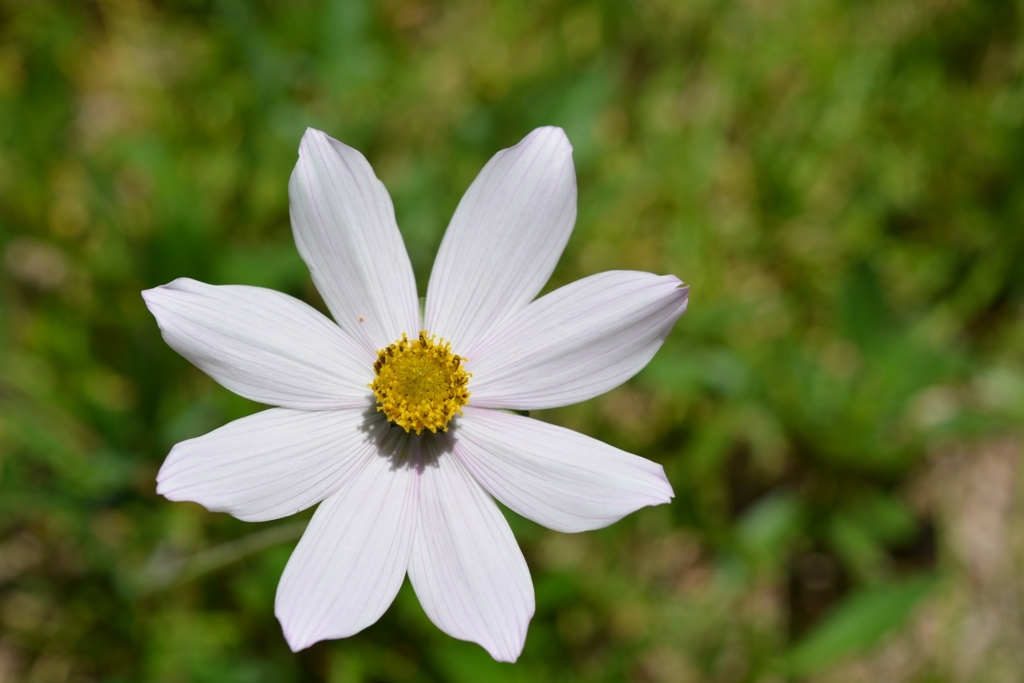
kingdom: Plantae
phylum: Tracheophyta
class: Magnoliopsida
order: Asterales
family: Asteraceae
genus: Cosmos
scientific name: Cosmos diversifolius
